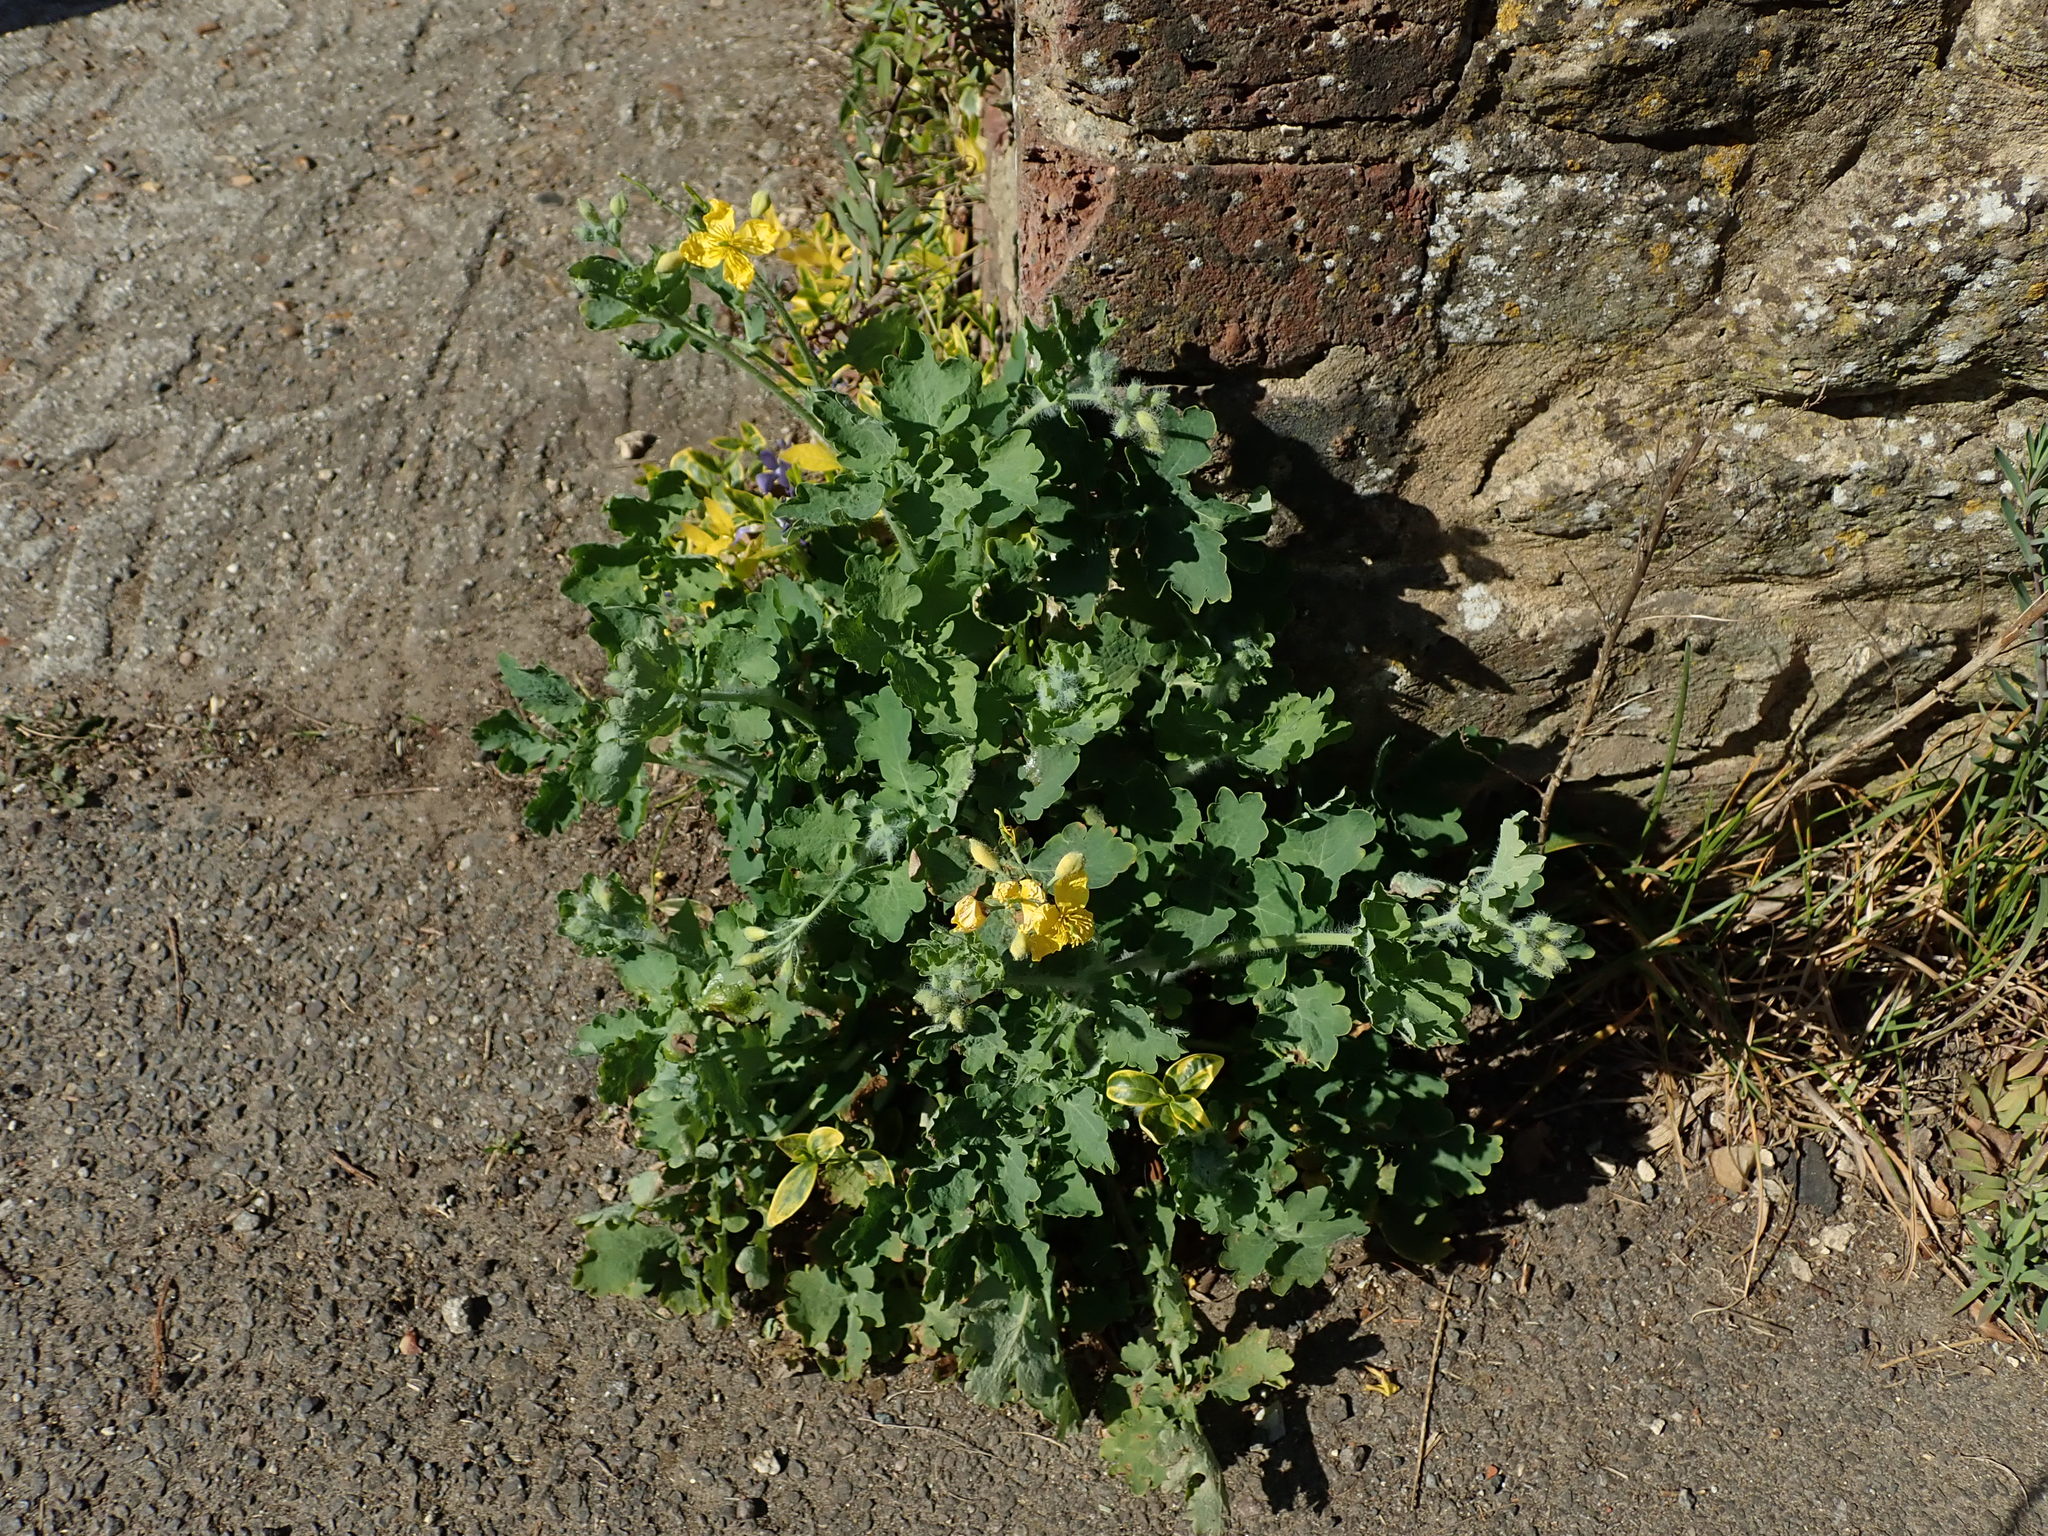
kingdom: Plantae
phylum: Tracheophyta
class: Magnoliopsida
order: Ranunculales
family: Papaveraceae
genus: Chelidonium
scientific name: Chelidonium majus
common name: Greater celandine
